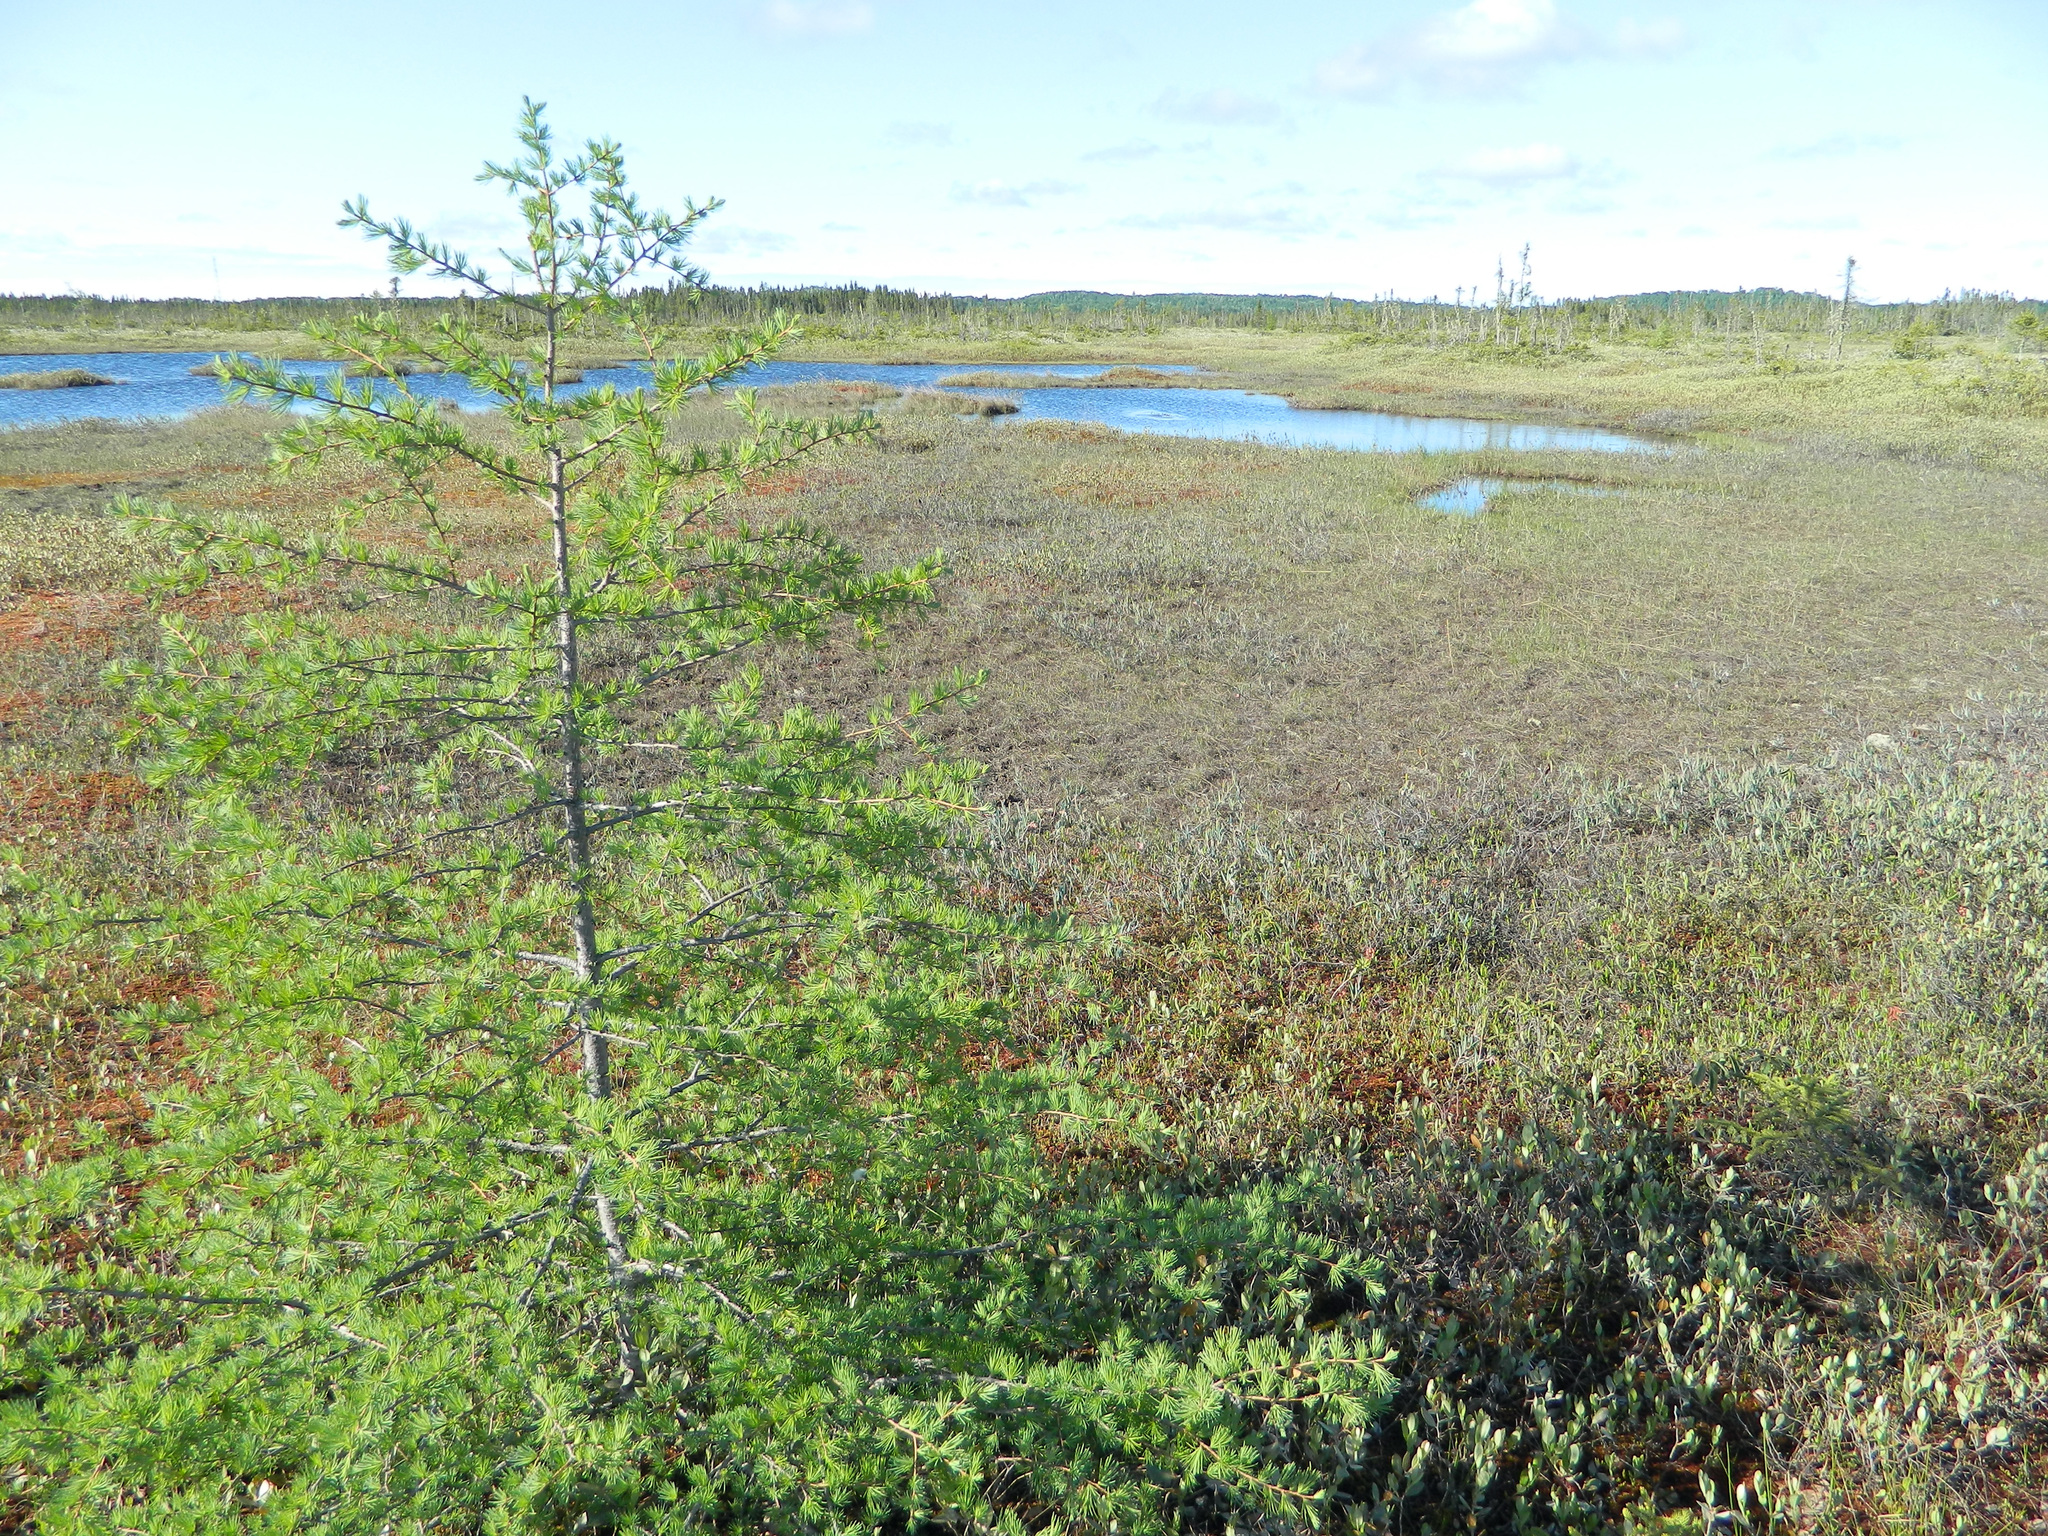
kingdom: Plantae
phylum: Tracheophyta
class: Pinopsida
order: Pinales
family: Pinaceae
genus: Larix
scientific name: Larix laricina
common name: American larch
